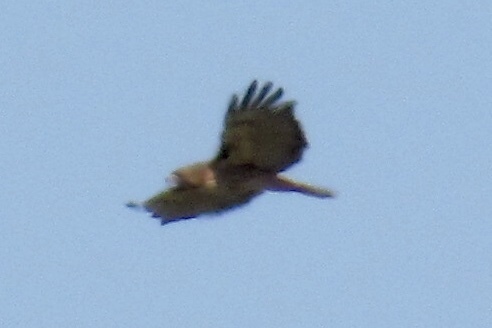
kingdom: Animalia
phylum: Chordata
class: Aves
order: Accipitriformes
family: Accipitridae
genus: Buteo
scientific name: Buteo jamaicensis
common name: Red-tailed hawk
